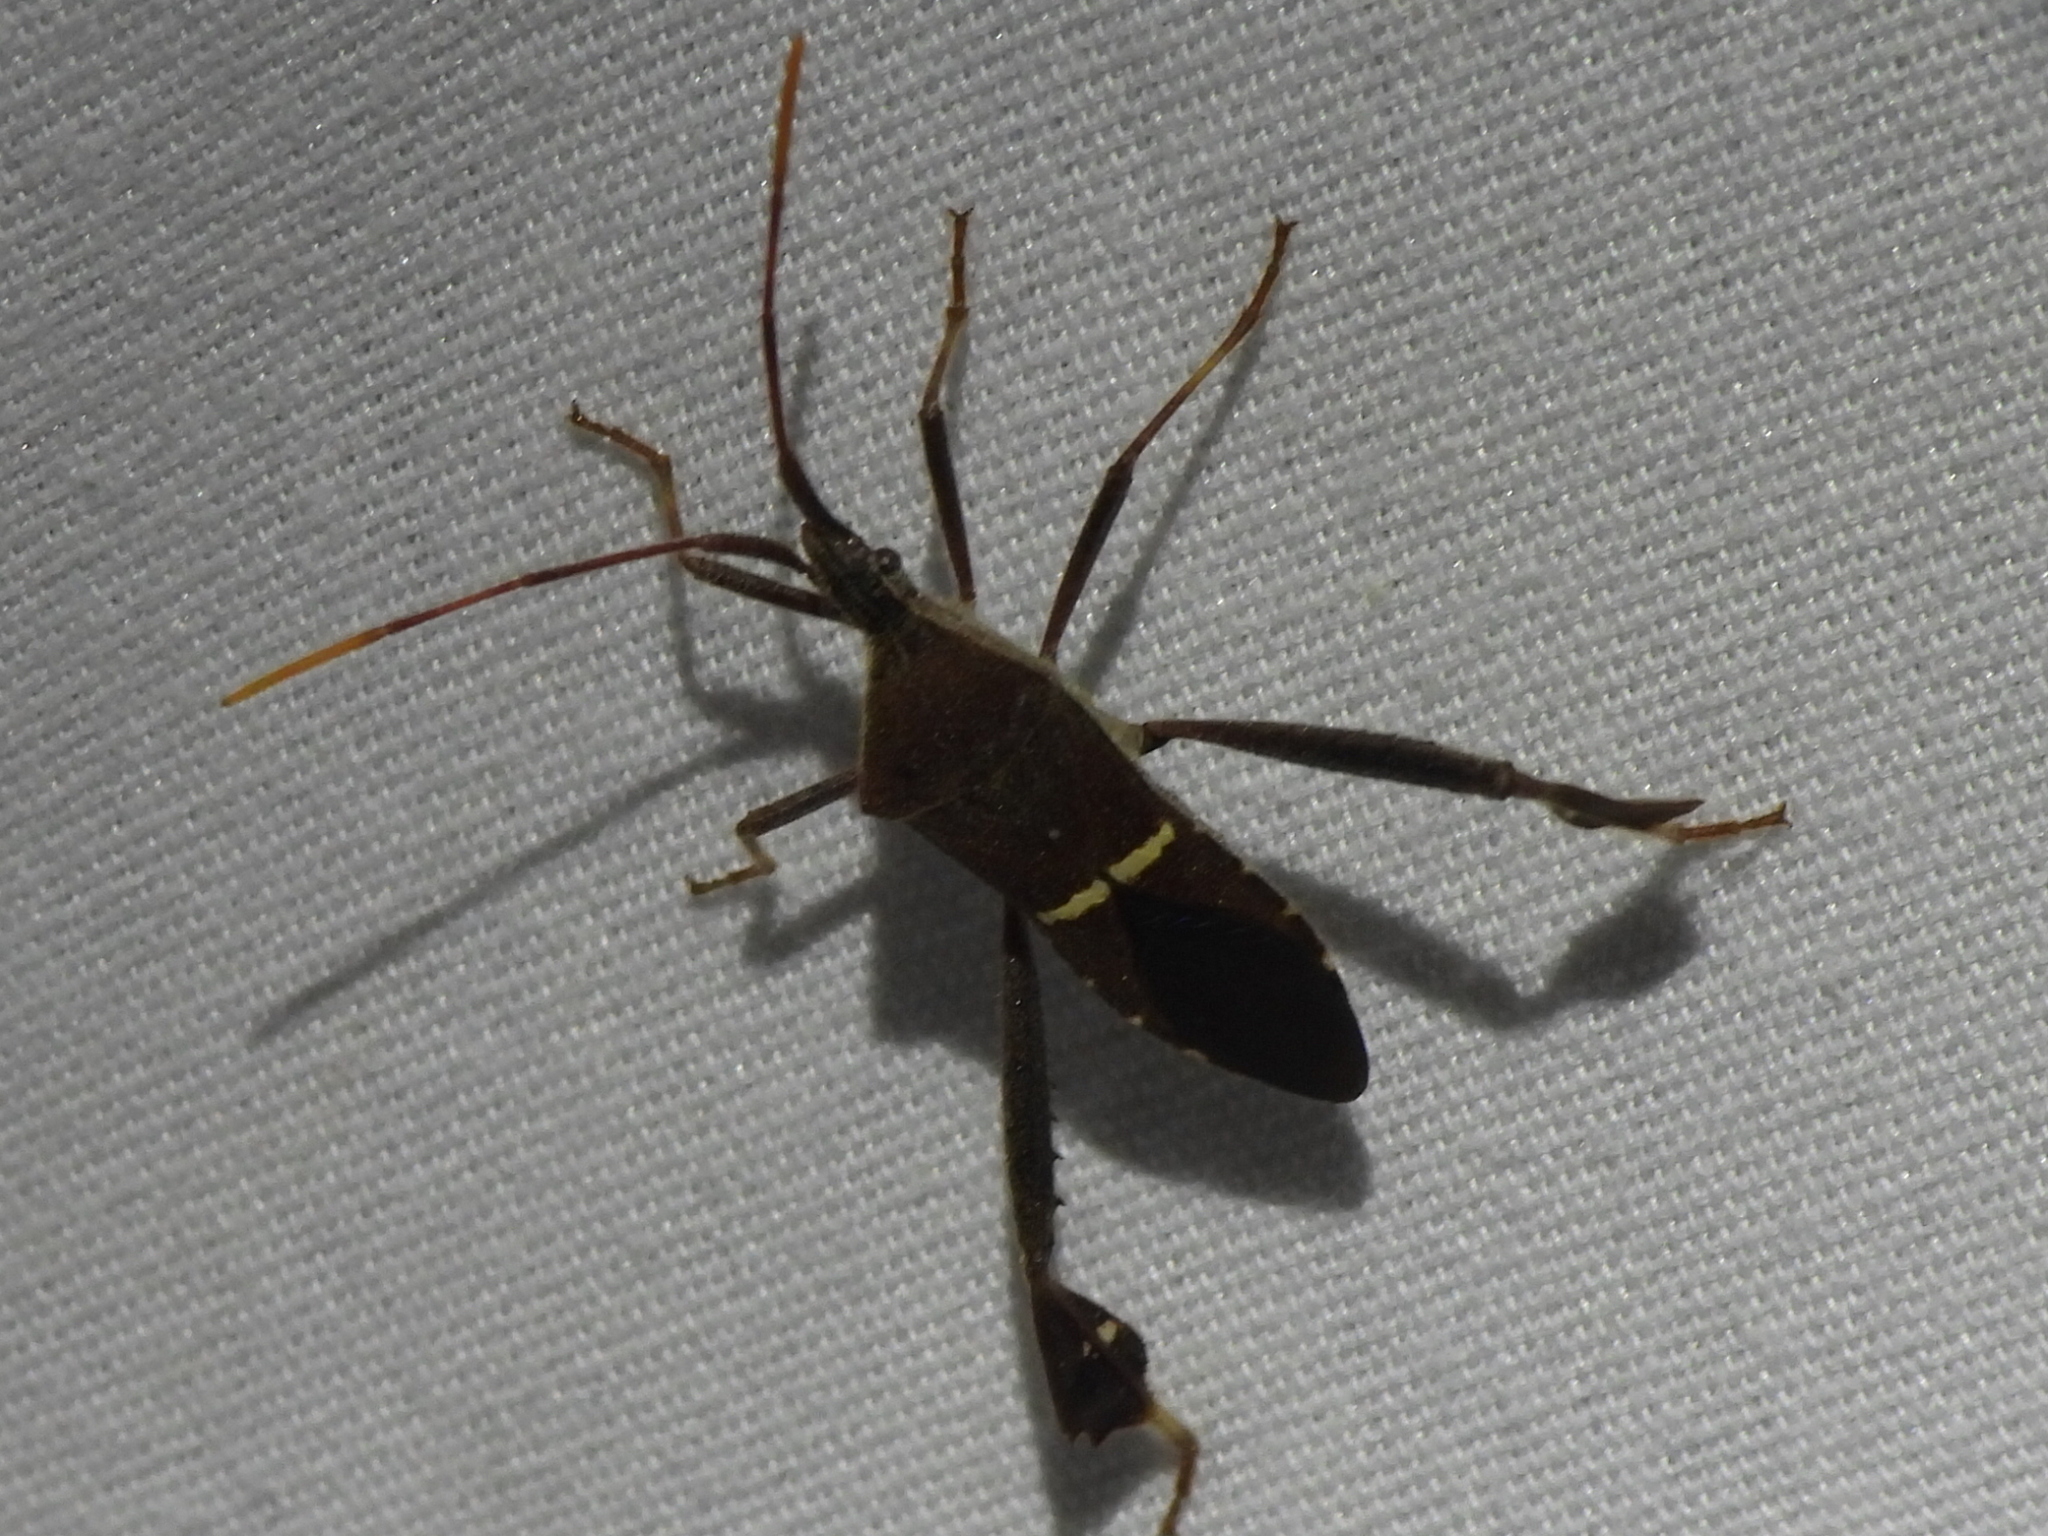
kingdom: Animalia
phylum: Arthropoda
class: Insecta
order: Hemiptera
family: Coreidae
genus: Leptoglossus
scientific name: Leptoglossus phyllopus
